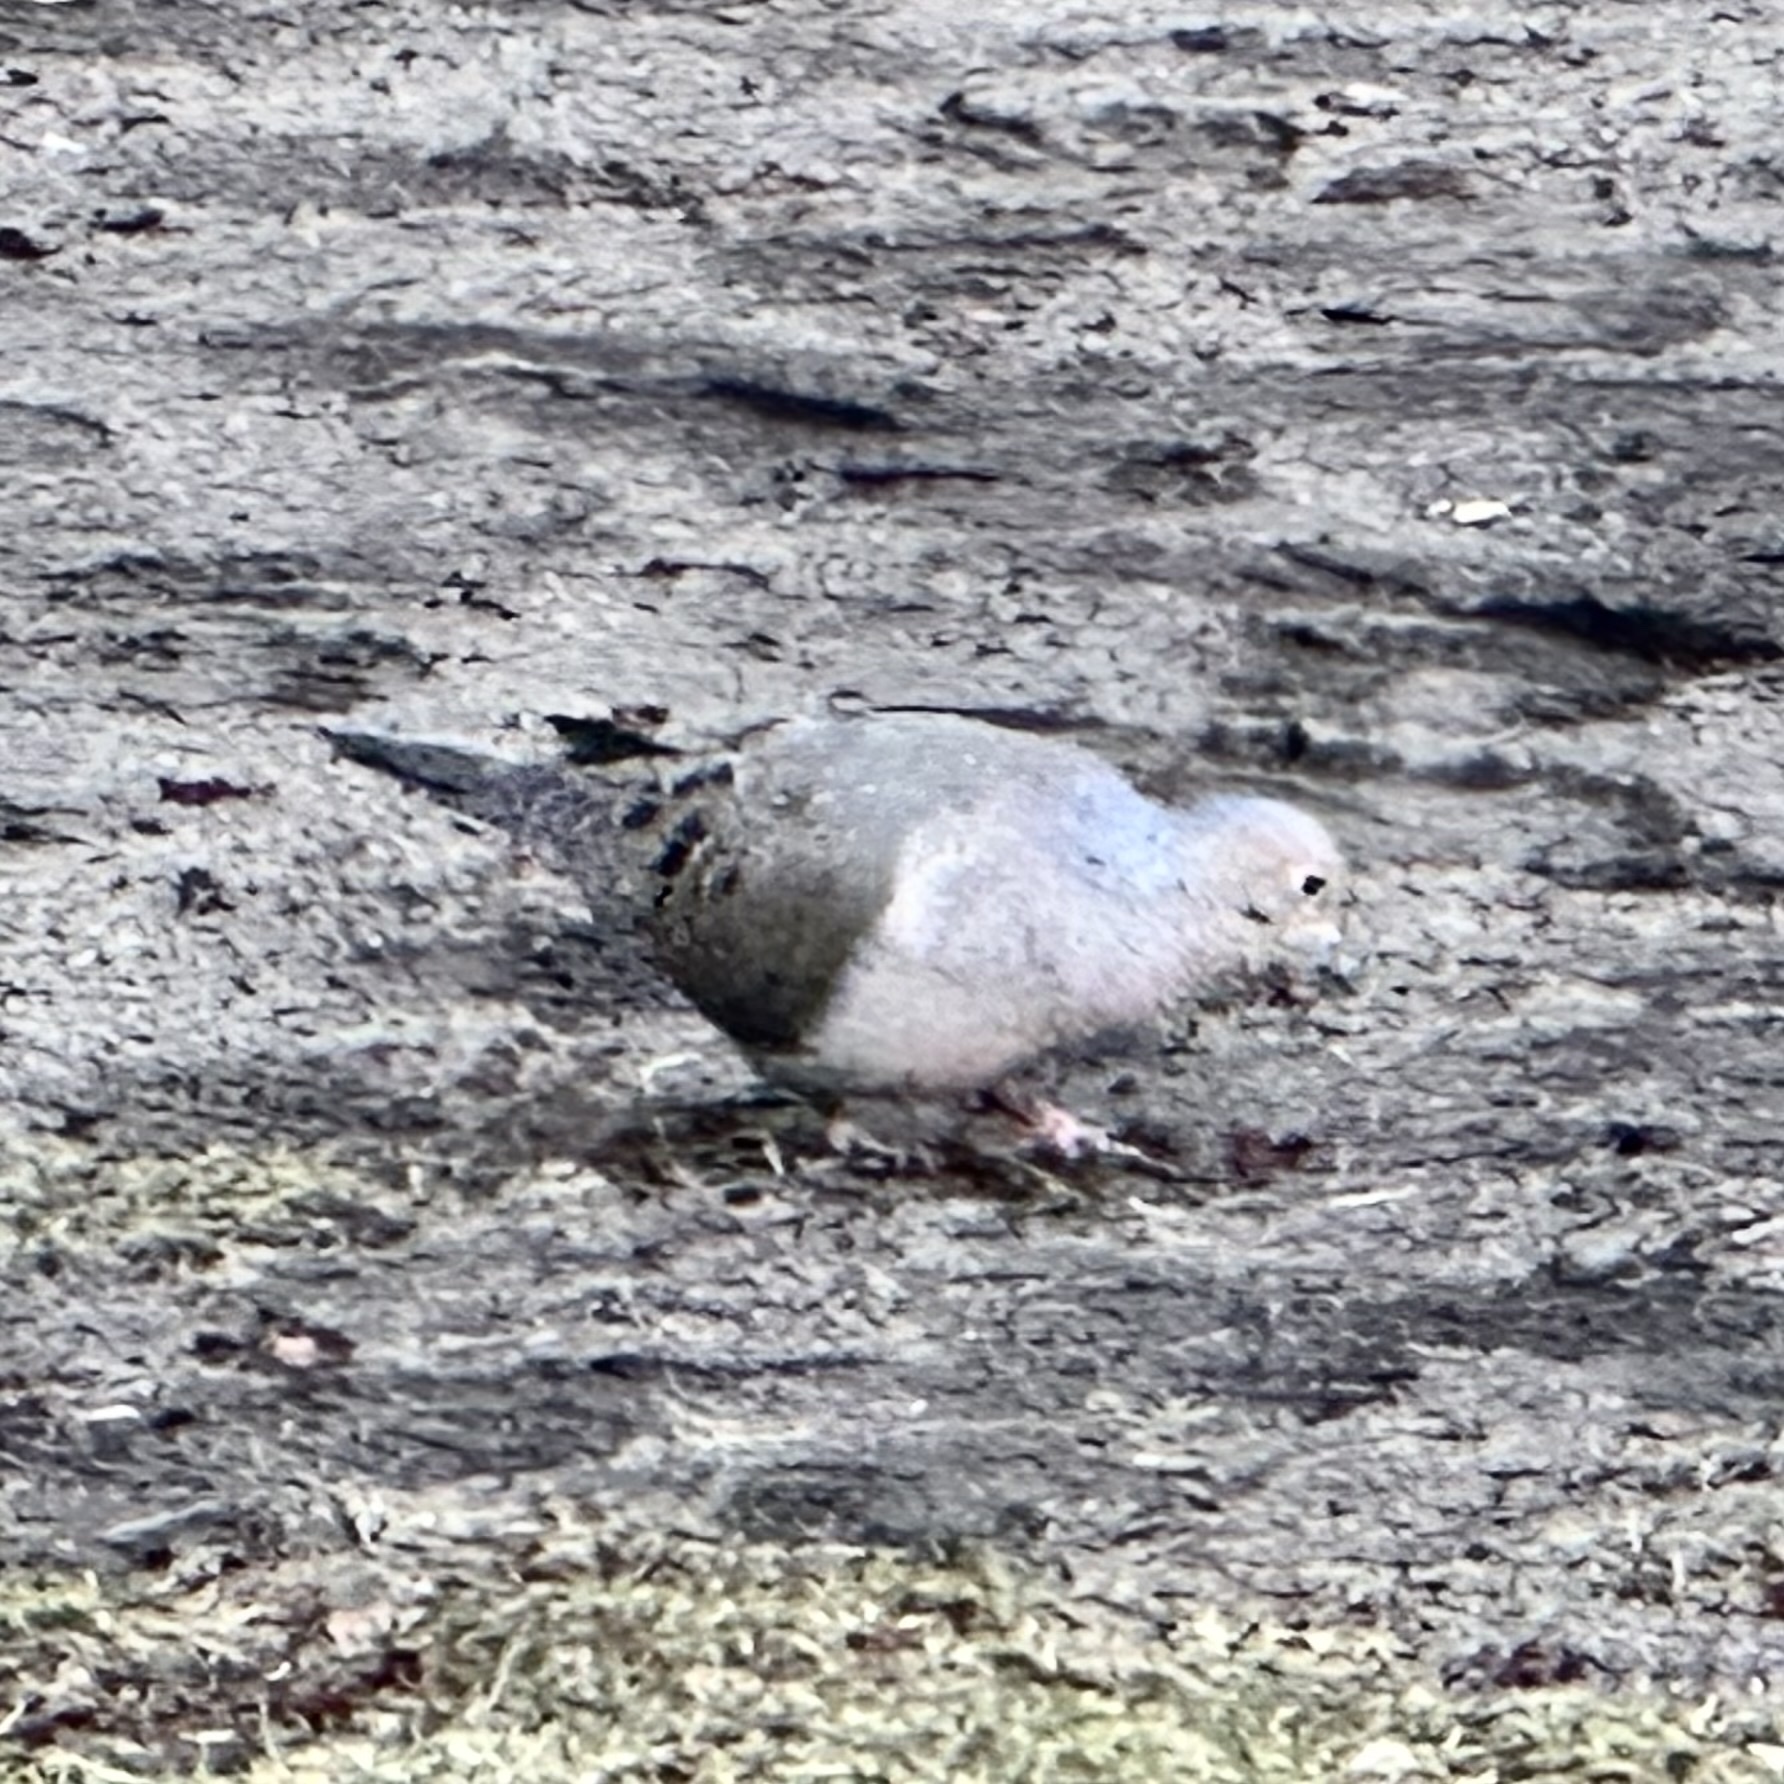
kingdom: Animalia
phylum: Chordata
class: Aves
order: Columbiformes
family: Columbidae
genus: Zenaida
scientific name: Zenaida macroura
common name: Mourning dove
